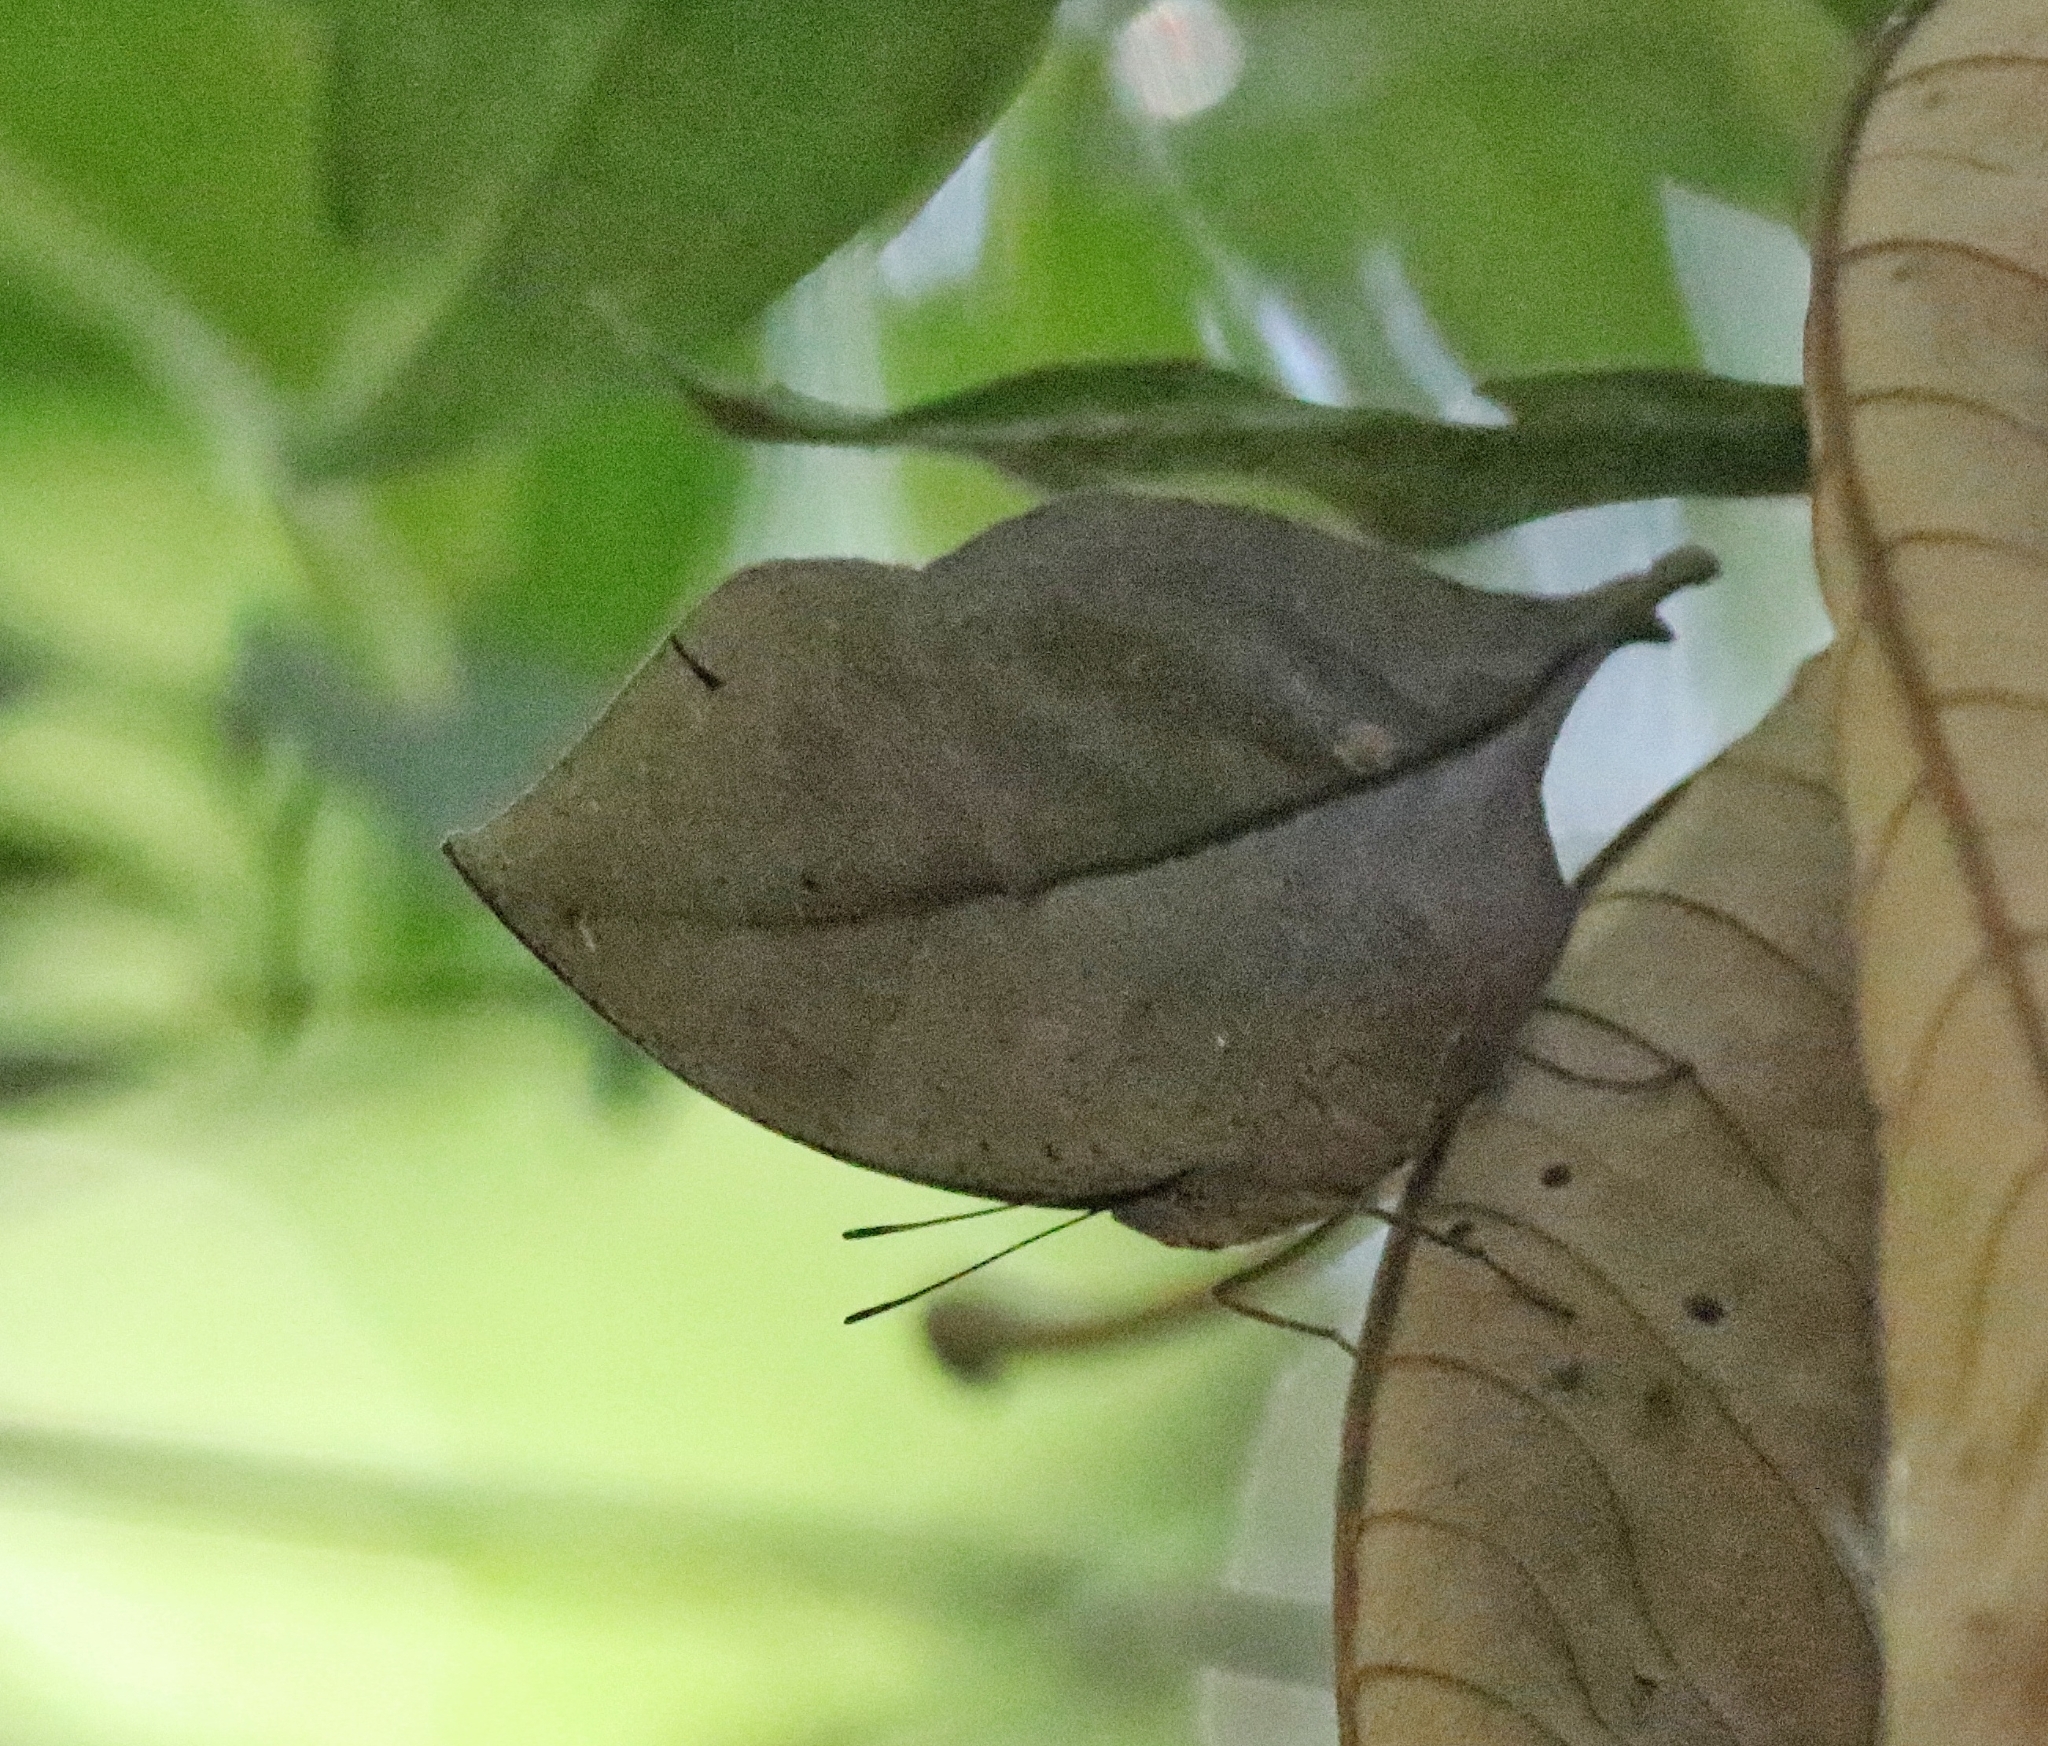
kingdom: Animalia
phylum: Arthropoda
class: Insecta
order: Lepidoptera
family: Nymphalidae
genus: Kallima
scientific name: Kallima horsfieldii
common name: Sahyadri blue oakleaf
